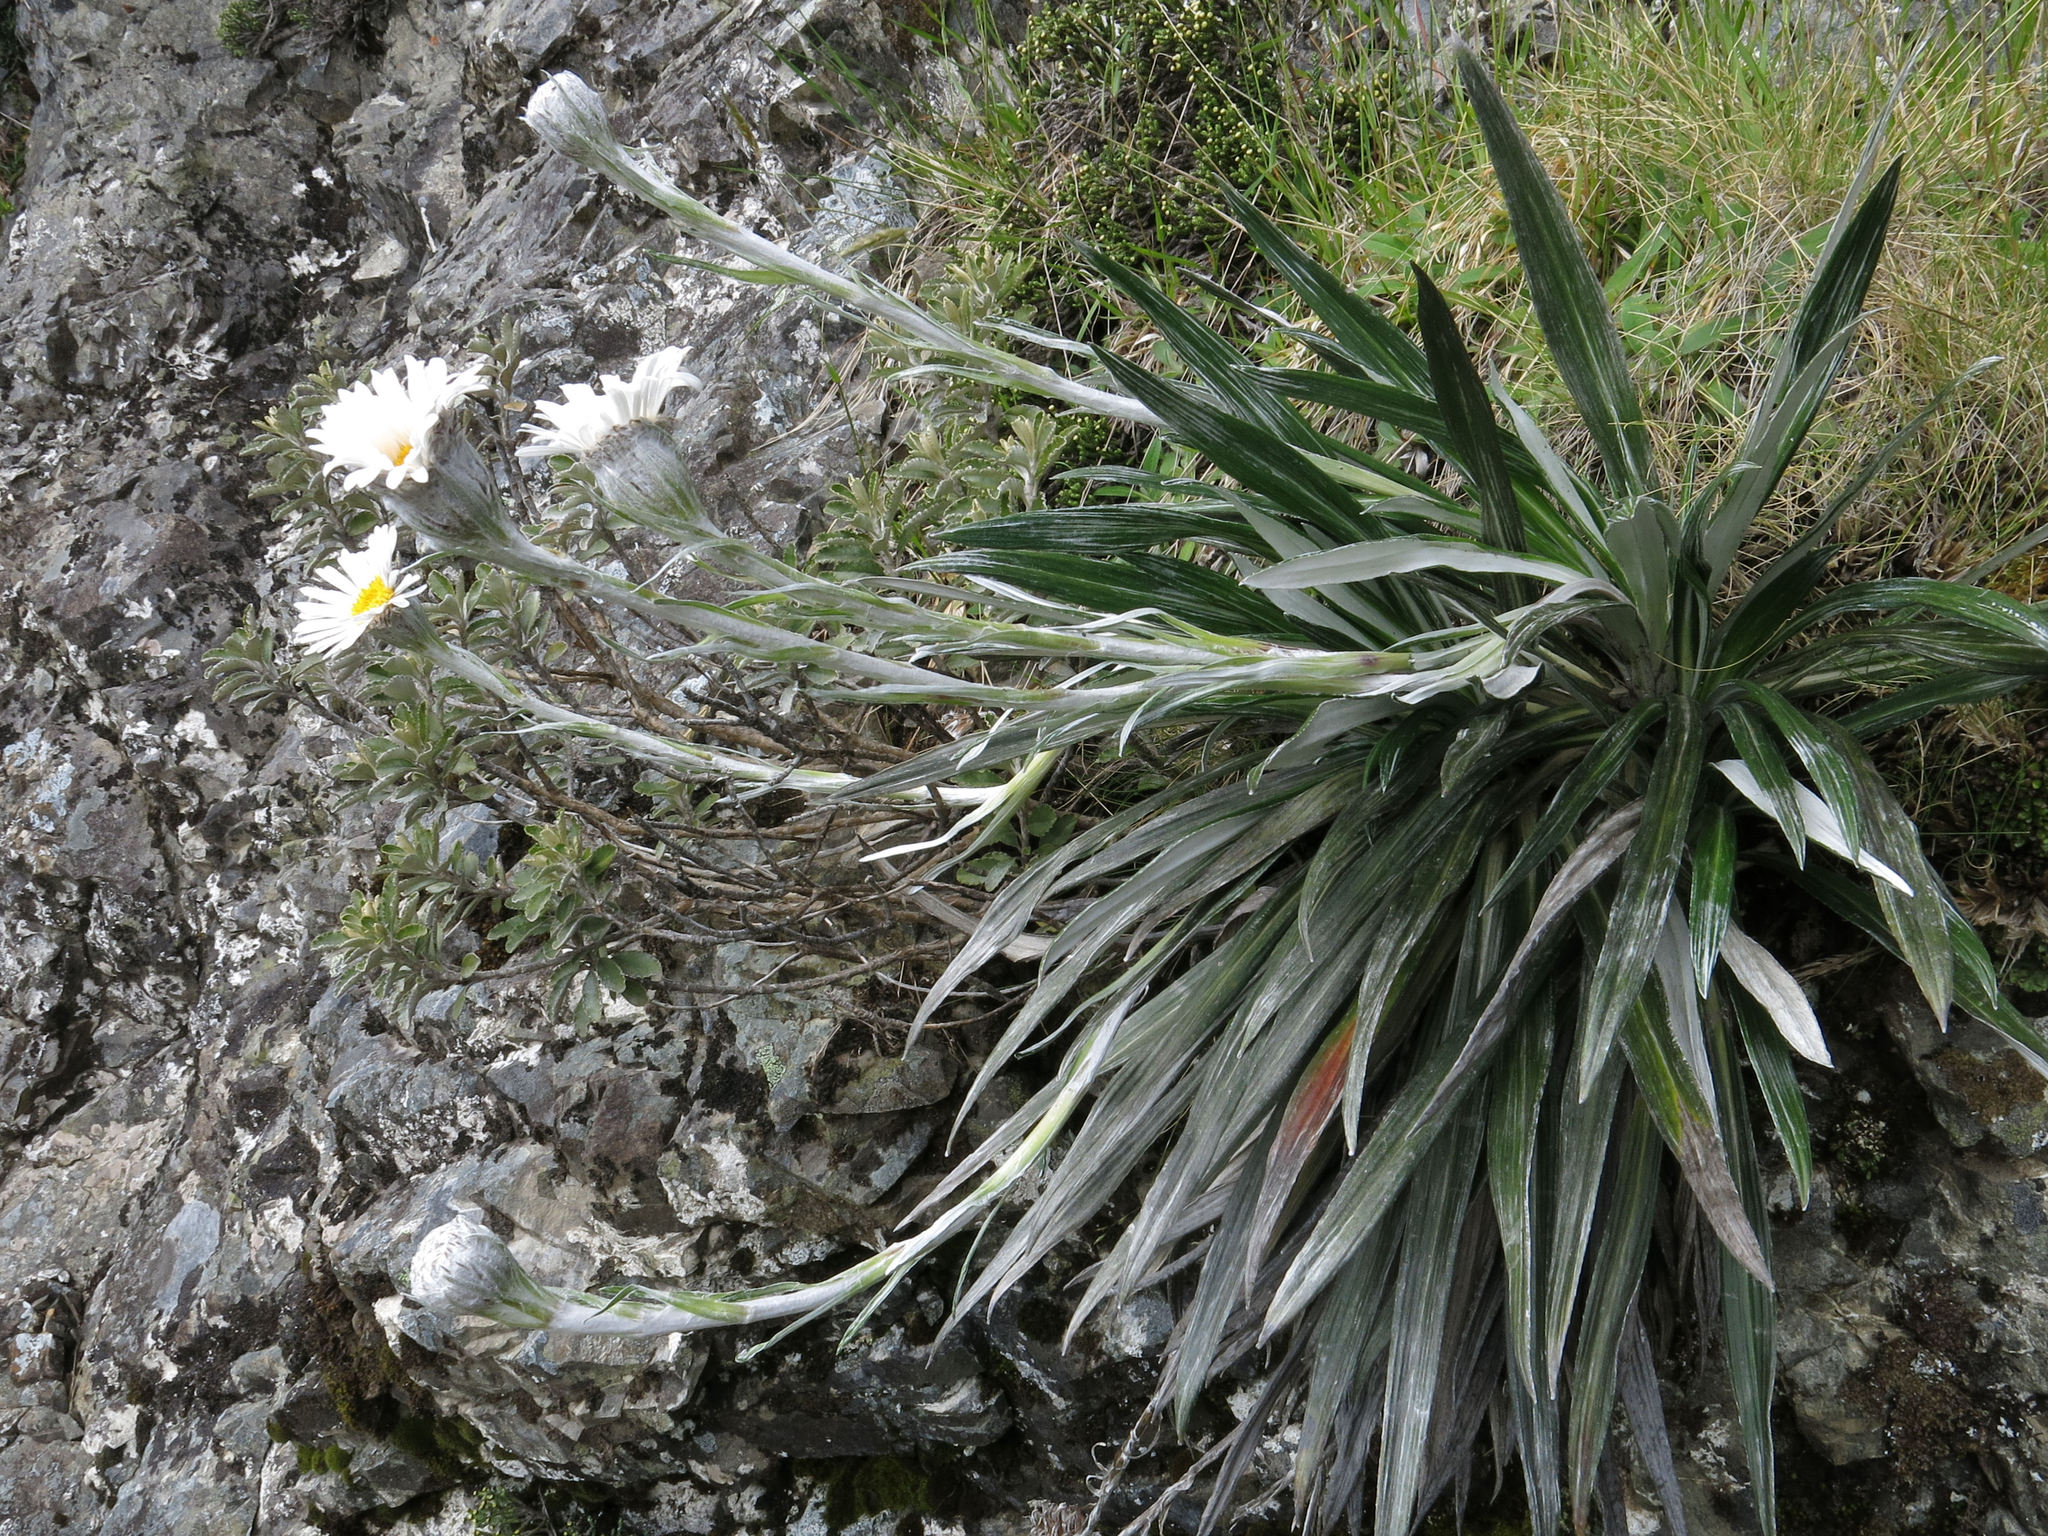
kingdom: Plantae
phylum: Tracheophyta
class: Magnoliopsida
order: Asterales
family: Asteraceae
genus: Celmisia
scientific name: Celmisia monroi
